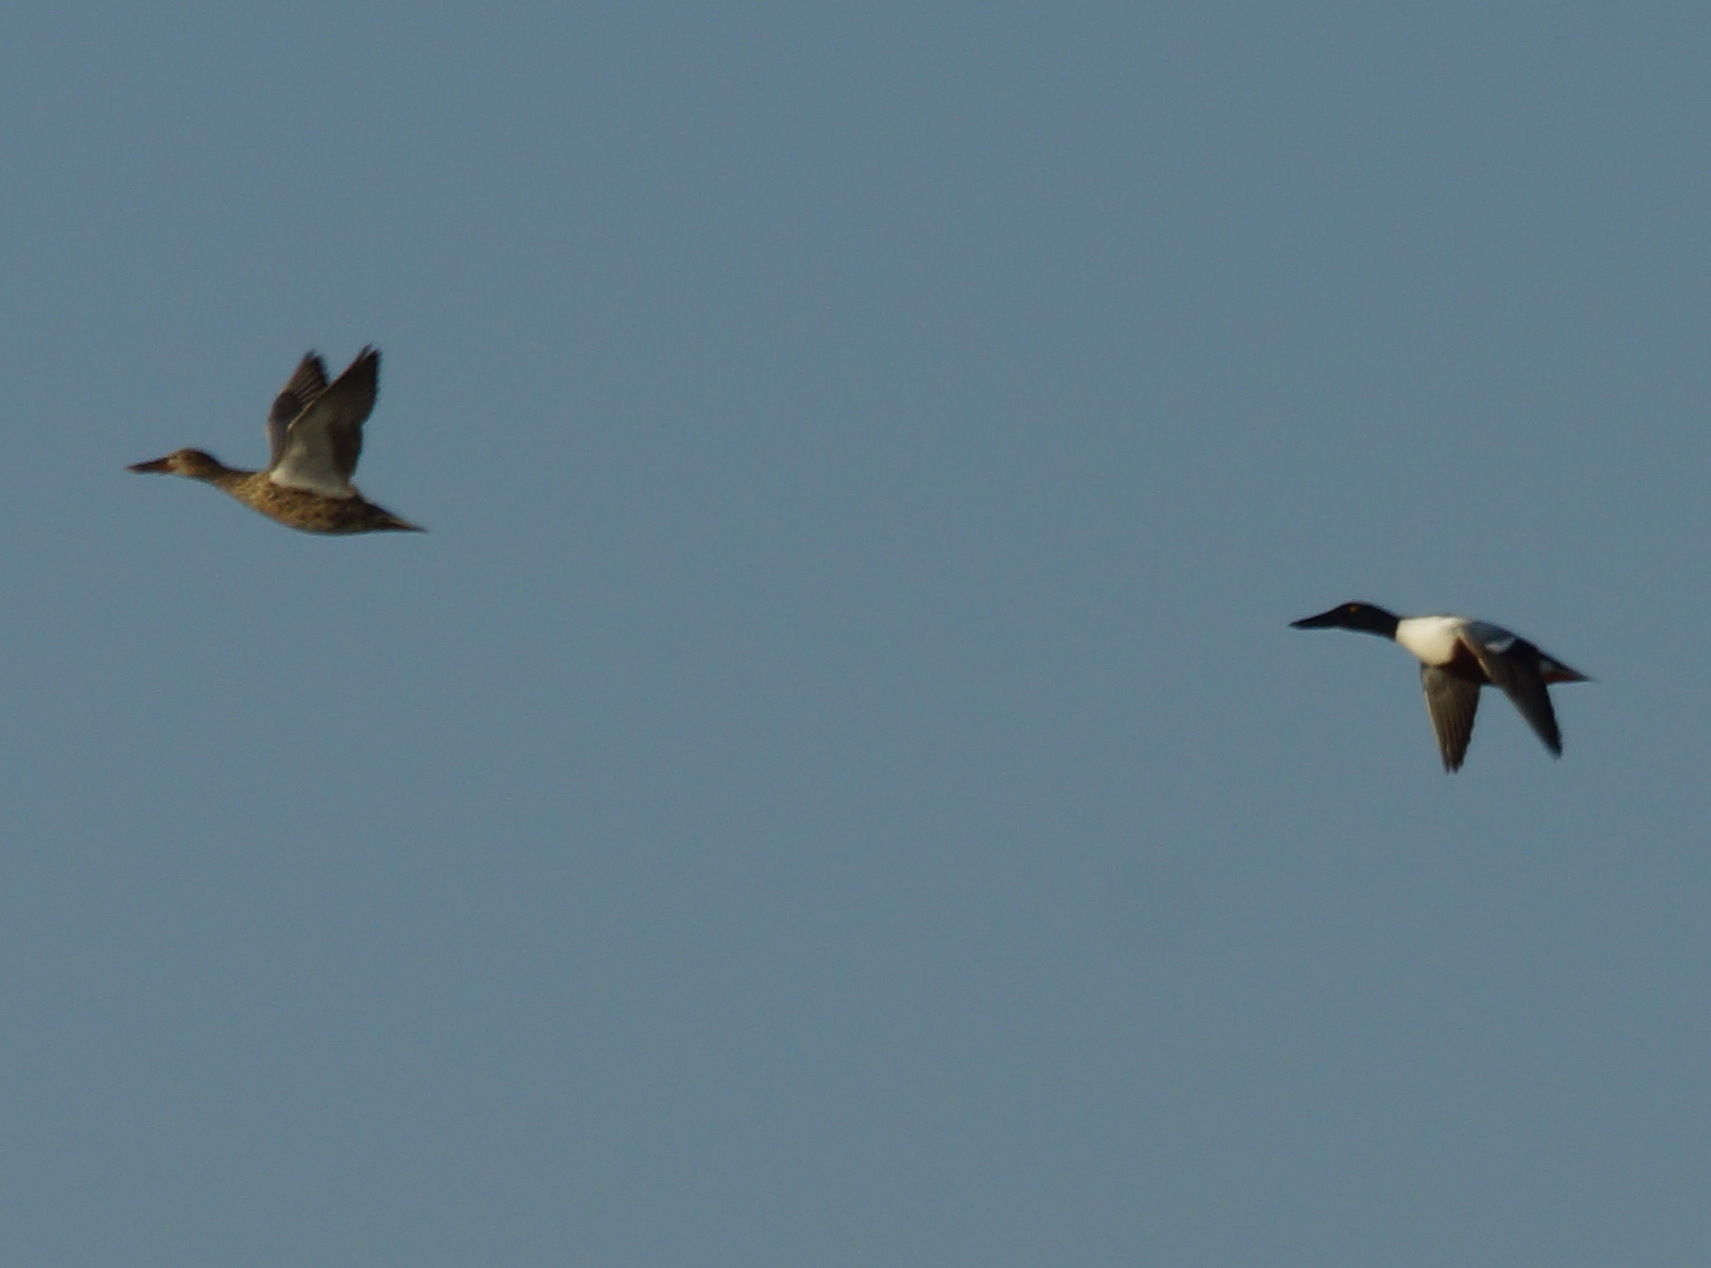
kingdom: Animalia
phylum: Chordata
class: Aves
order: Anseriformes
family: Anatidae
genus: Spatula
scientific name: Spatula clypeata
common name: Northern shoveler
